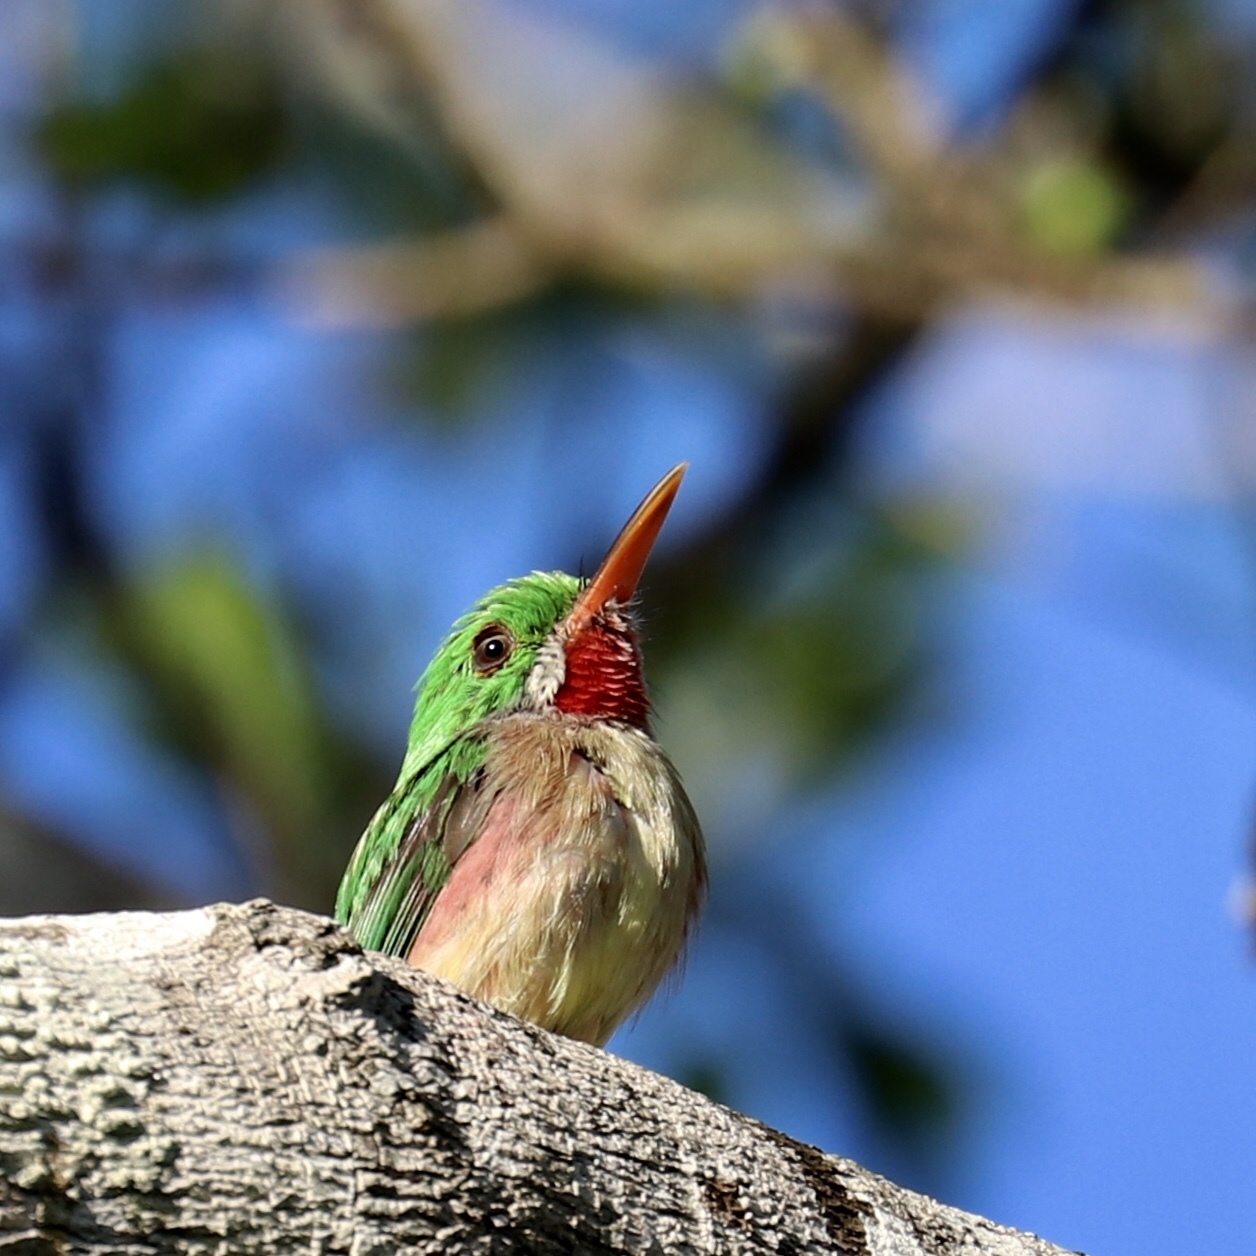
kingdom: Animalia
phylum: Chordata
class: Aves
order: Coraciiformes
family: Todidae
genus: Todus
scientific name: Todus subulatus
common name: Broad-billed tody
